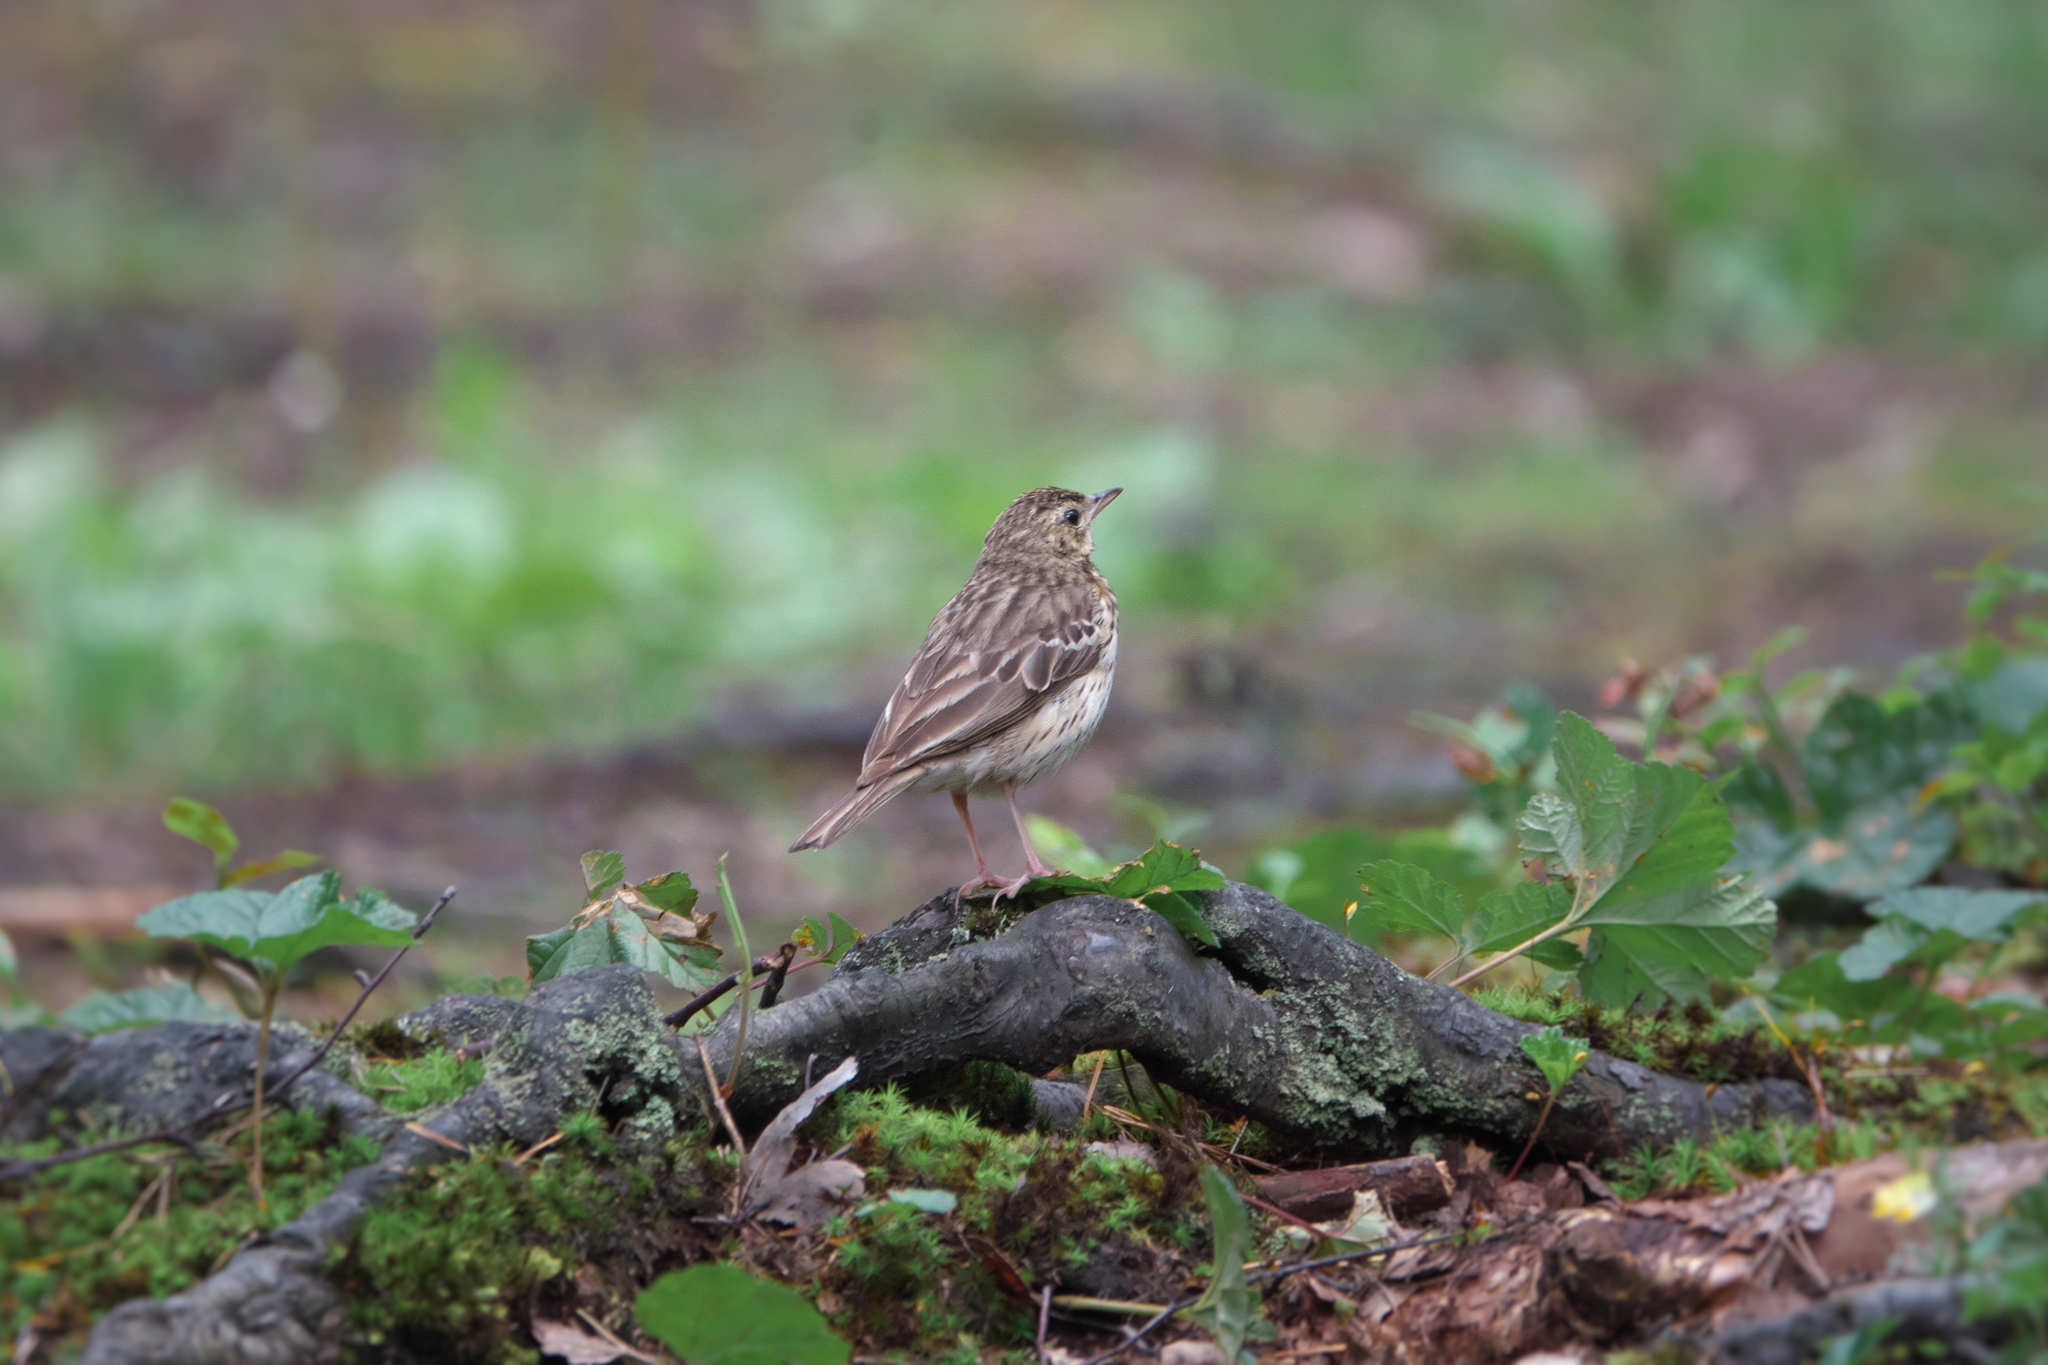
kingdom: Animalia
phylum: Chordata
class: Aves
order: Passeriformes
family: Motacillidae
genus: Anthus
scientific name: Anthus trivialis
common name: Tree pipit
